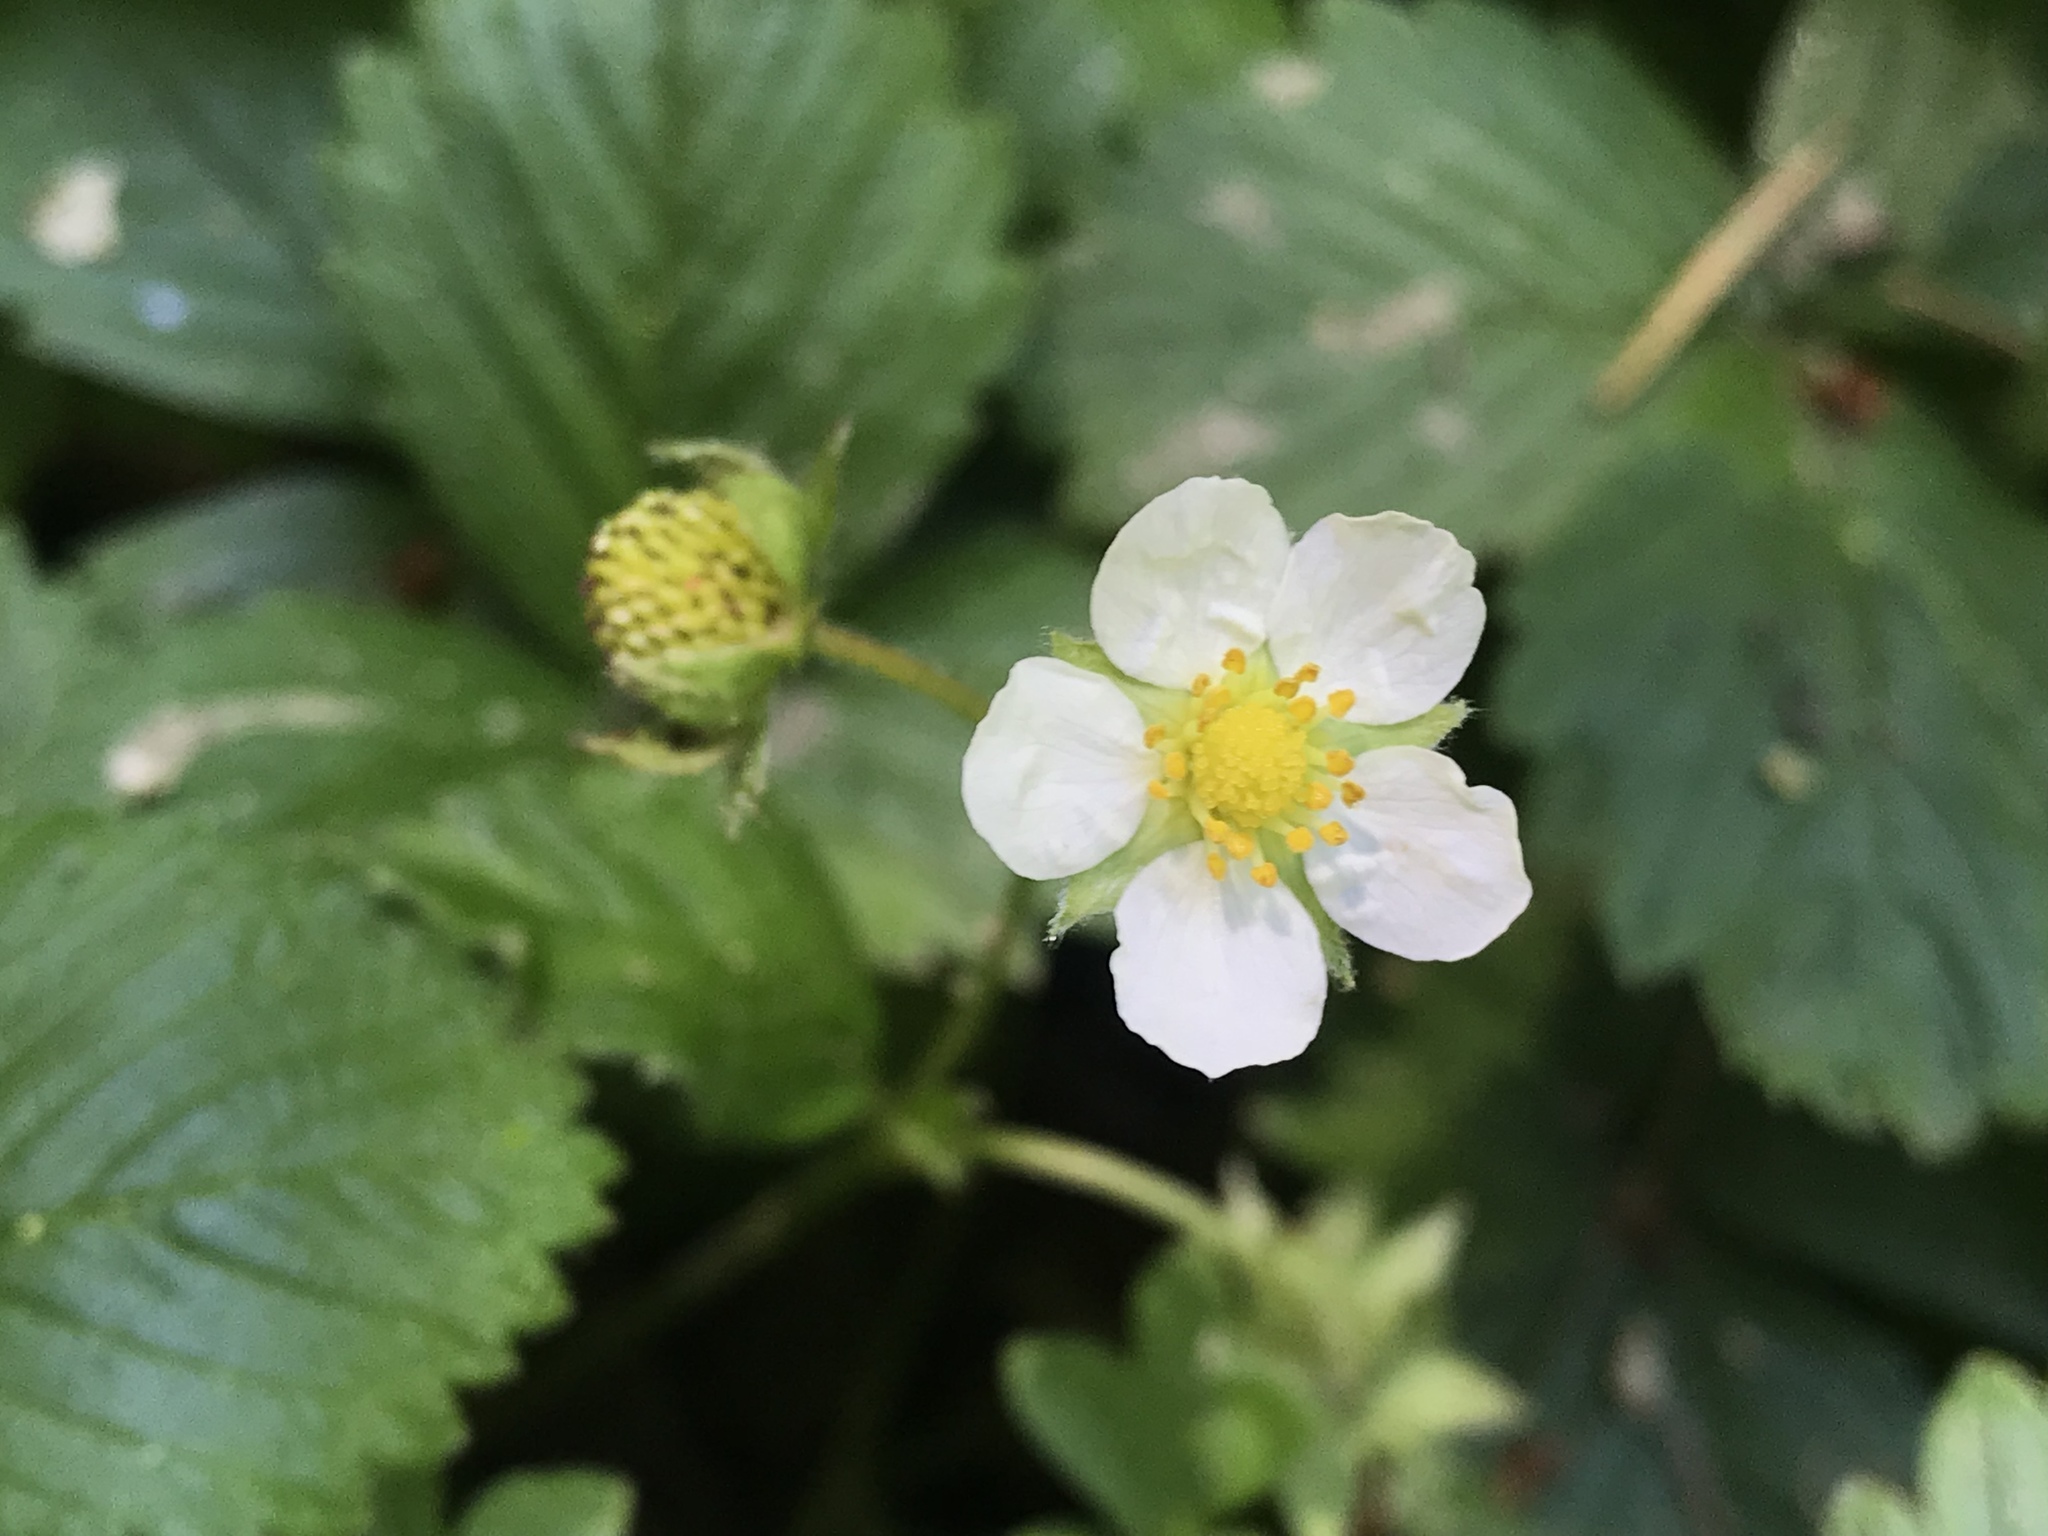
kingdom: Plantae
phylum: Tracheophyta
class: Magnoliopsida
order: Rosales
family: Rosaceae
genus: Fragaria
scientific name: Fragaria vesca
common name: Wild strawberry
